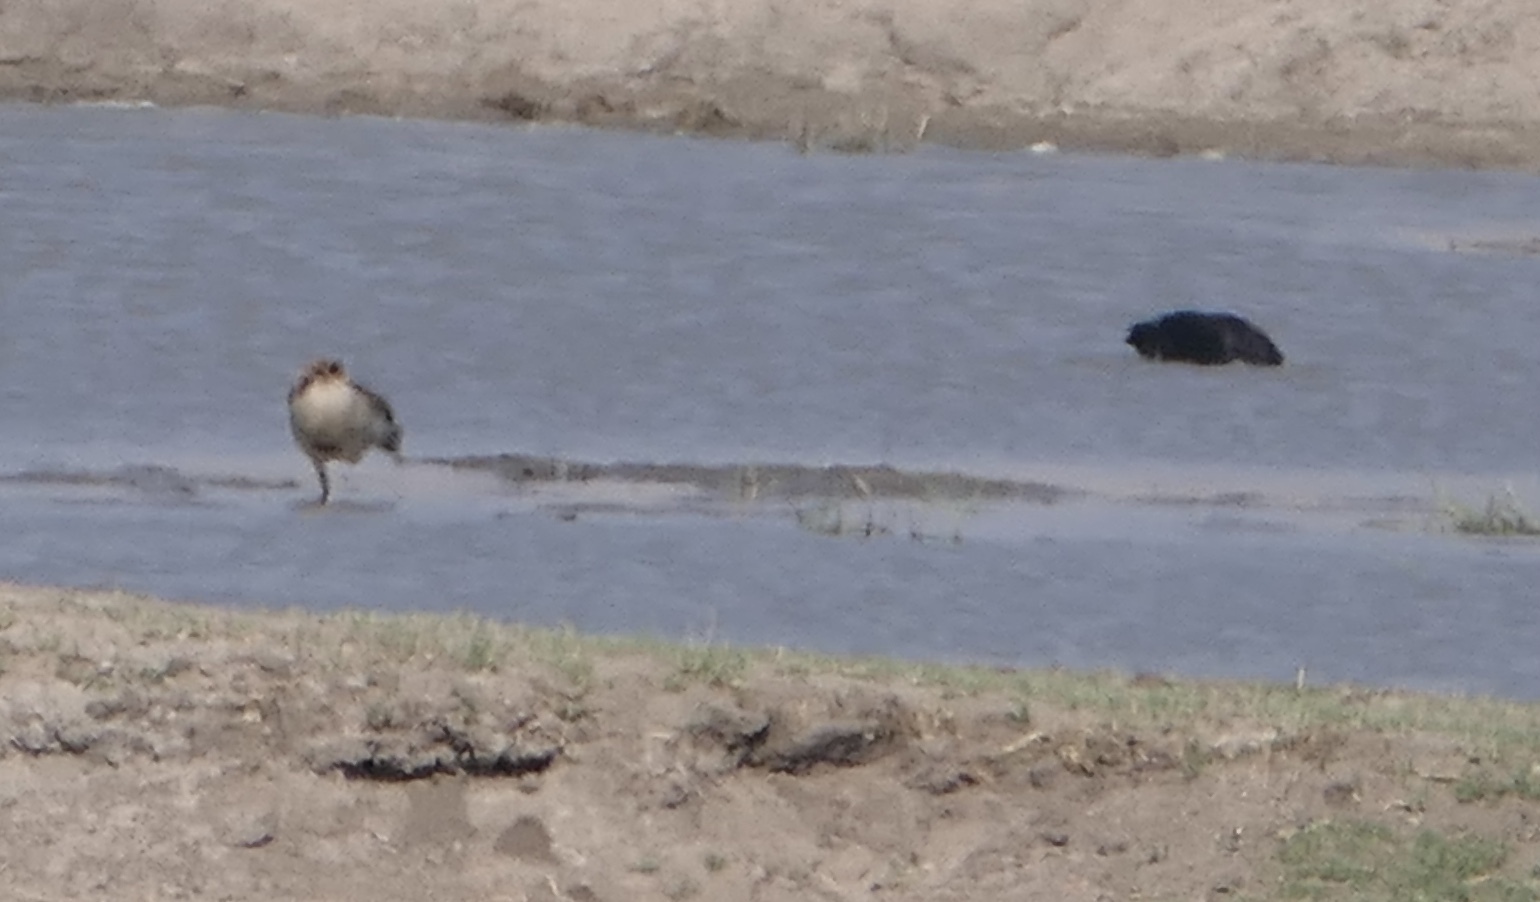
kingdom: Animalia
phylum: Chordata
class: Aves
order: Anseriformes
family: Anatidae
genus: Alopochen
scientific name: Alopochen aegyptiaca
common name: Egyptian goose
